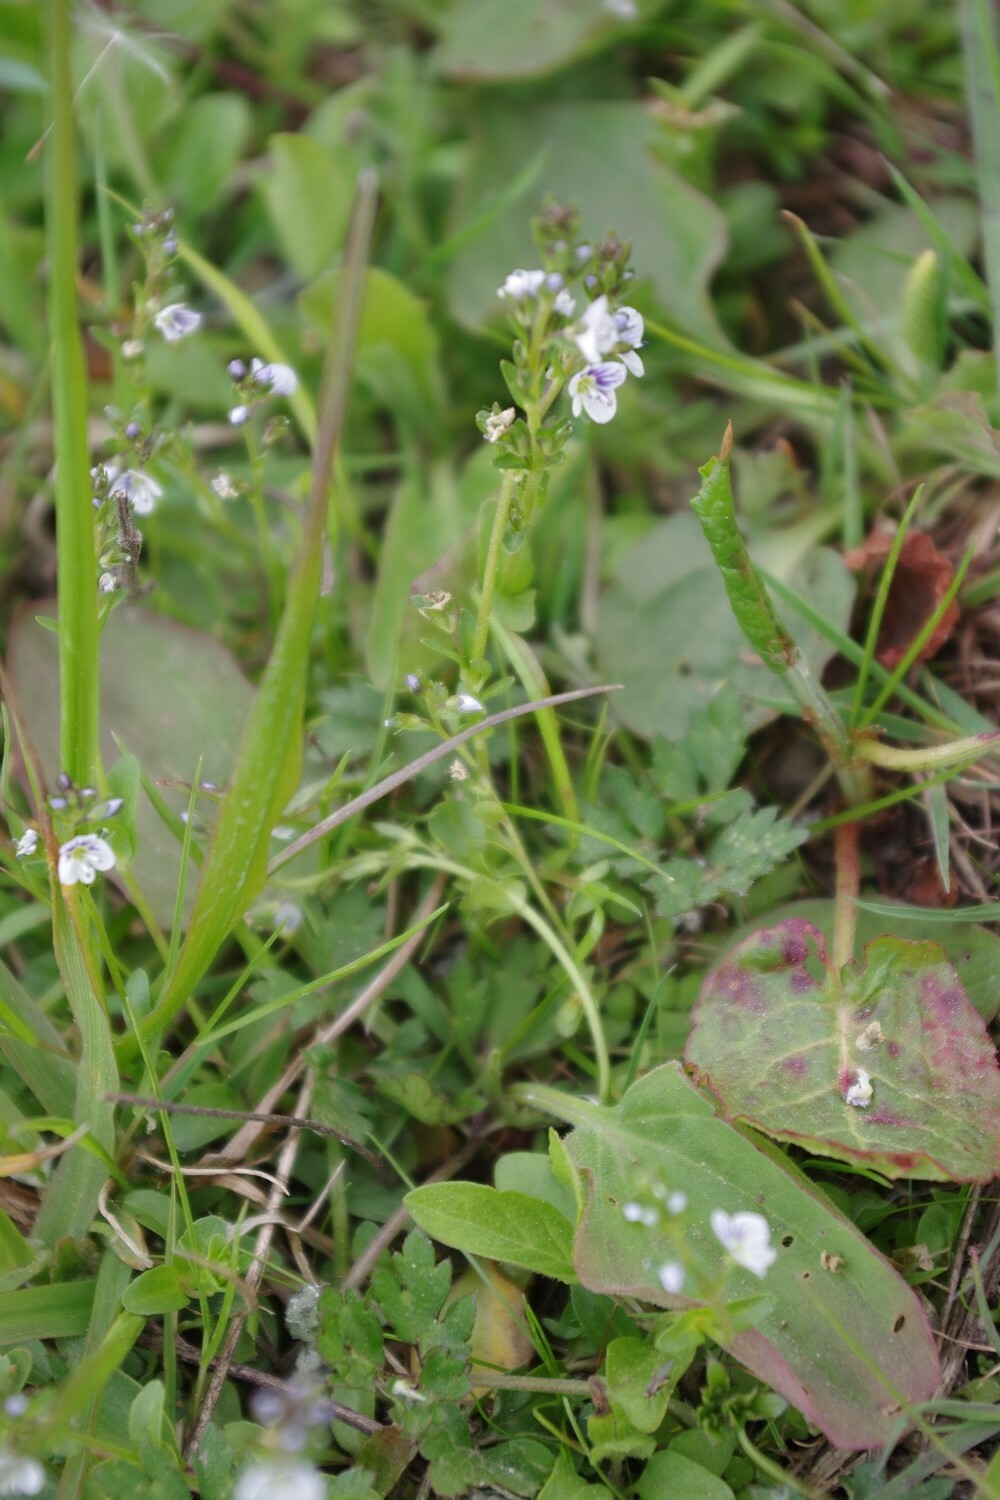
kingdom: Plantae
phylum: Tracheophyta
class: Magnoliopsida
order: Lamiales
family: Plantaginaceae
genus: Veronica
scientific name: Veronica serpyllifolia
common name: Thyme-leaved speedwell
